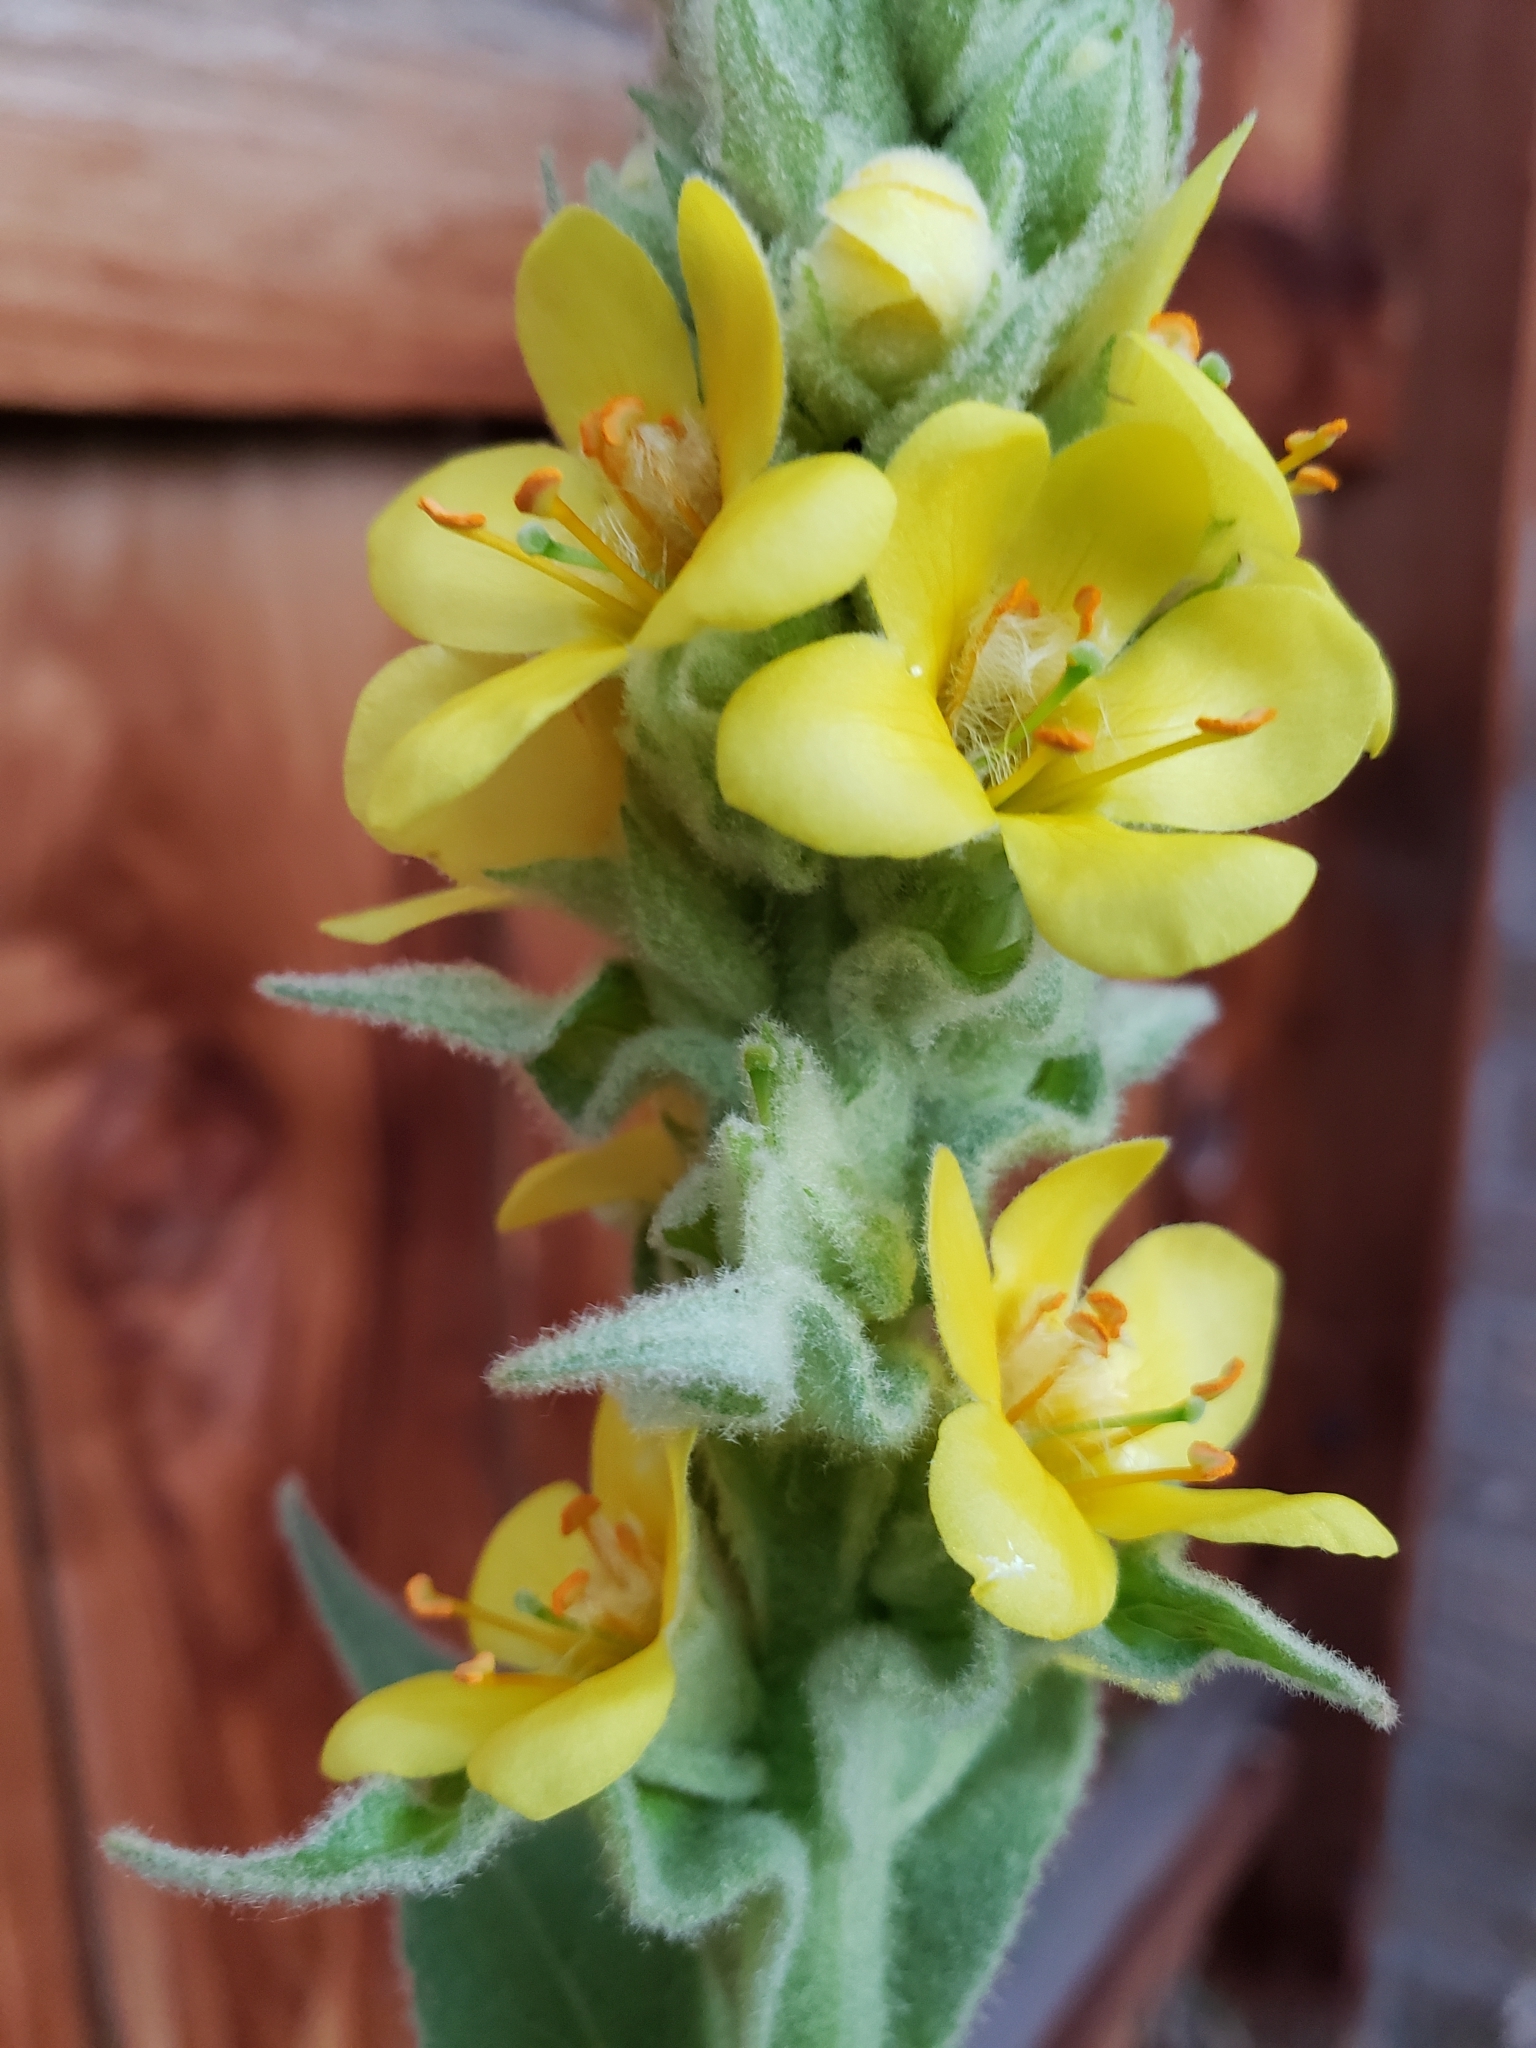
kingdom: Plantae
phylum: Tracheophyta
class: Magnoliopsida
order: Lamiales
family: Scrophulariaceae
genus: Verbascum
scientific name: Verbascum thapsus
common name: Common mullein
